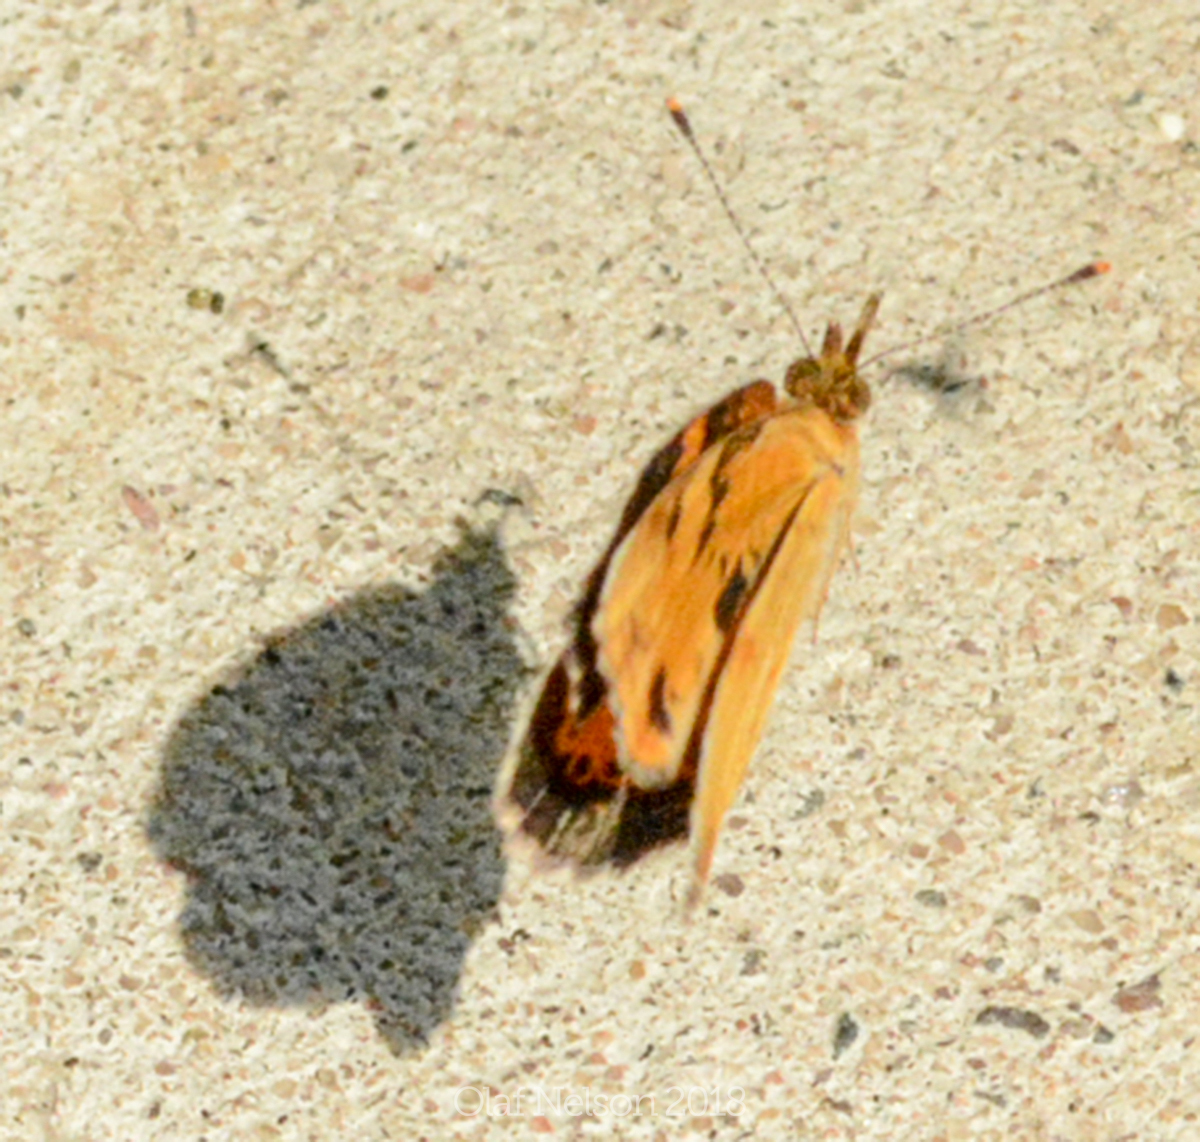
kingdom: Animalia
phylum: Arthropoda
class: Insecta
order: Lepidoptera
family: Nymphalidae
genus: Phyciodes
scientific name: Phyciodes tharos
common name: Pearl crescent
